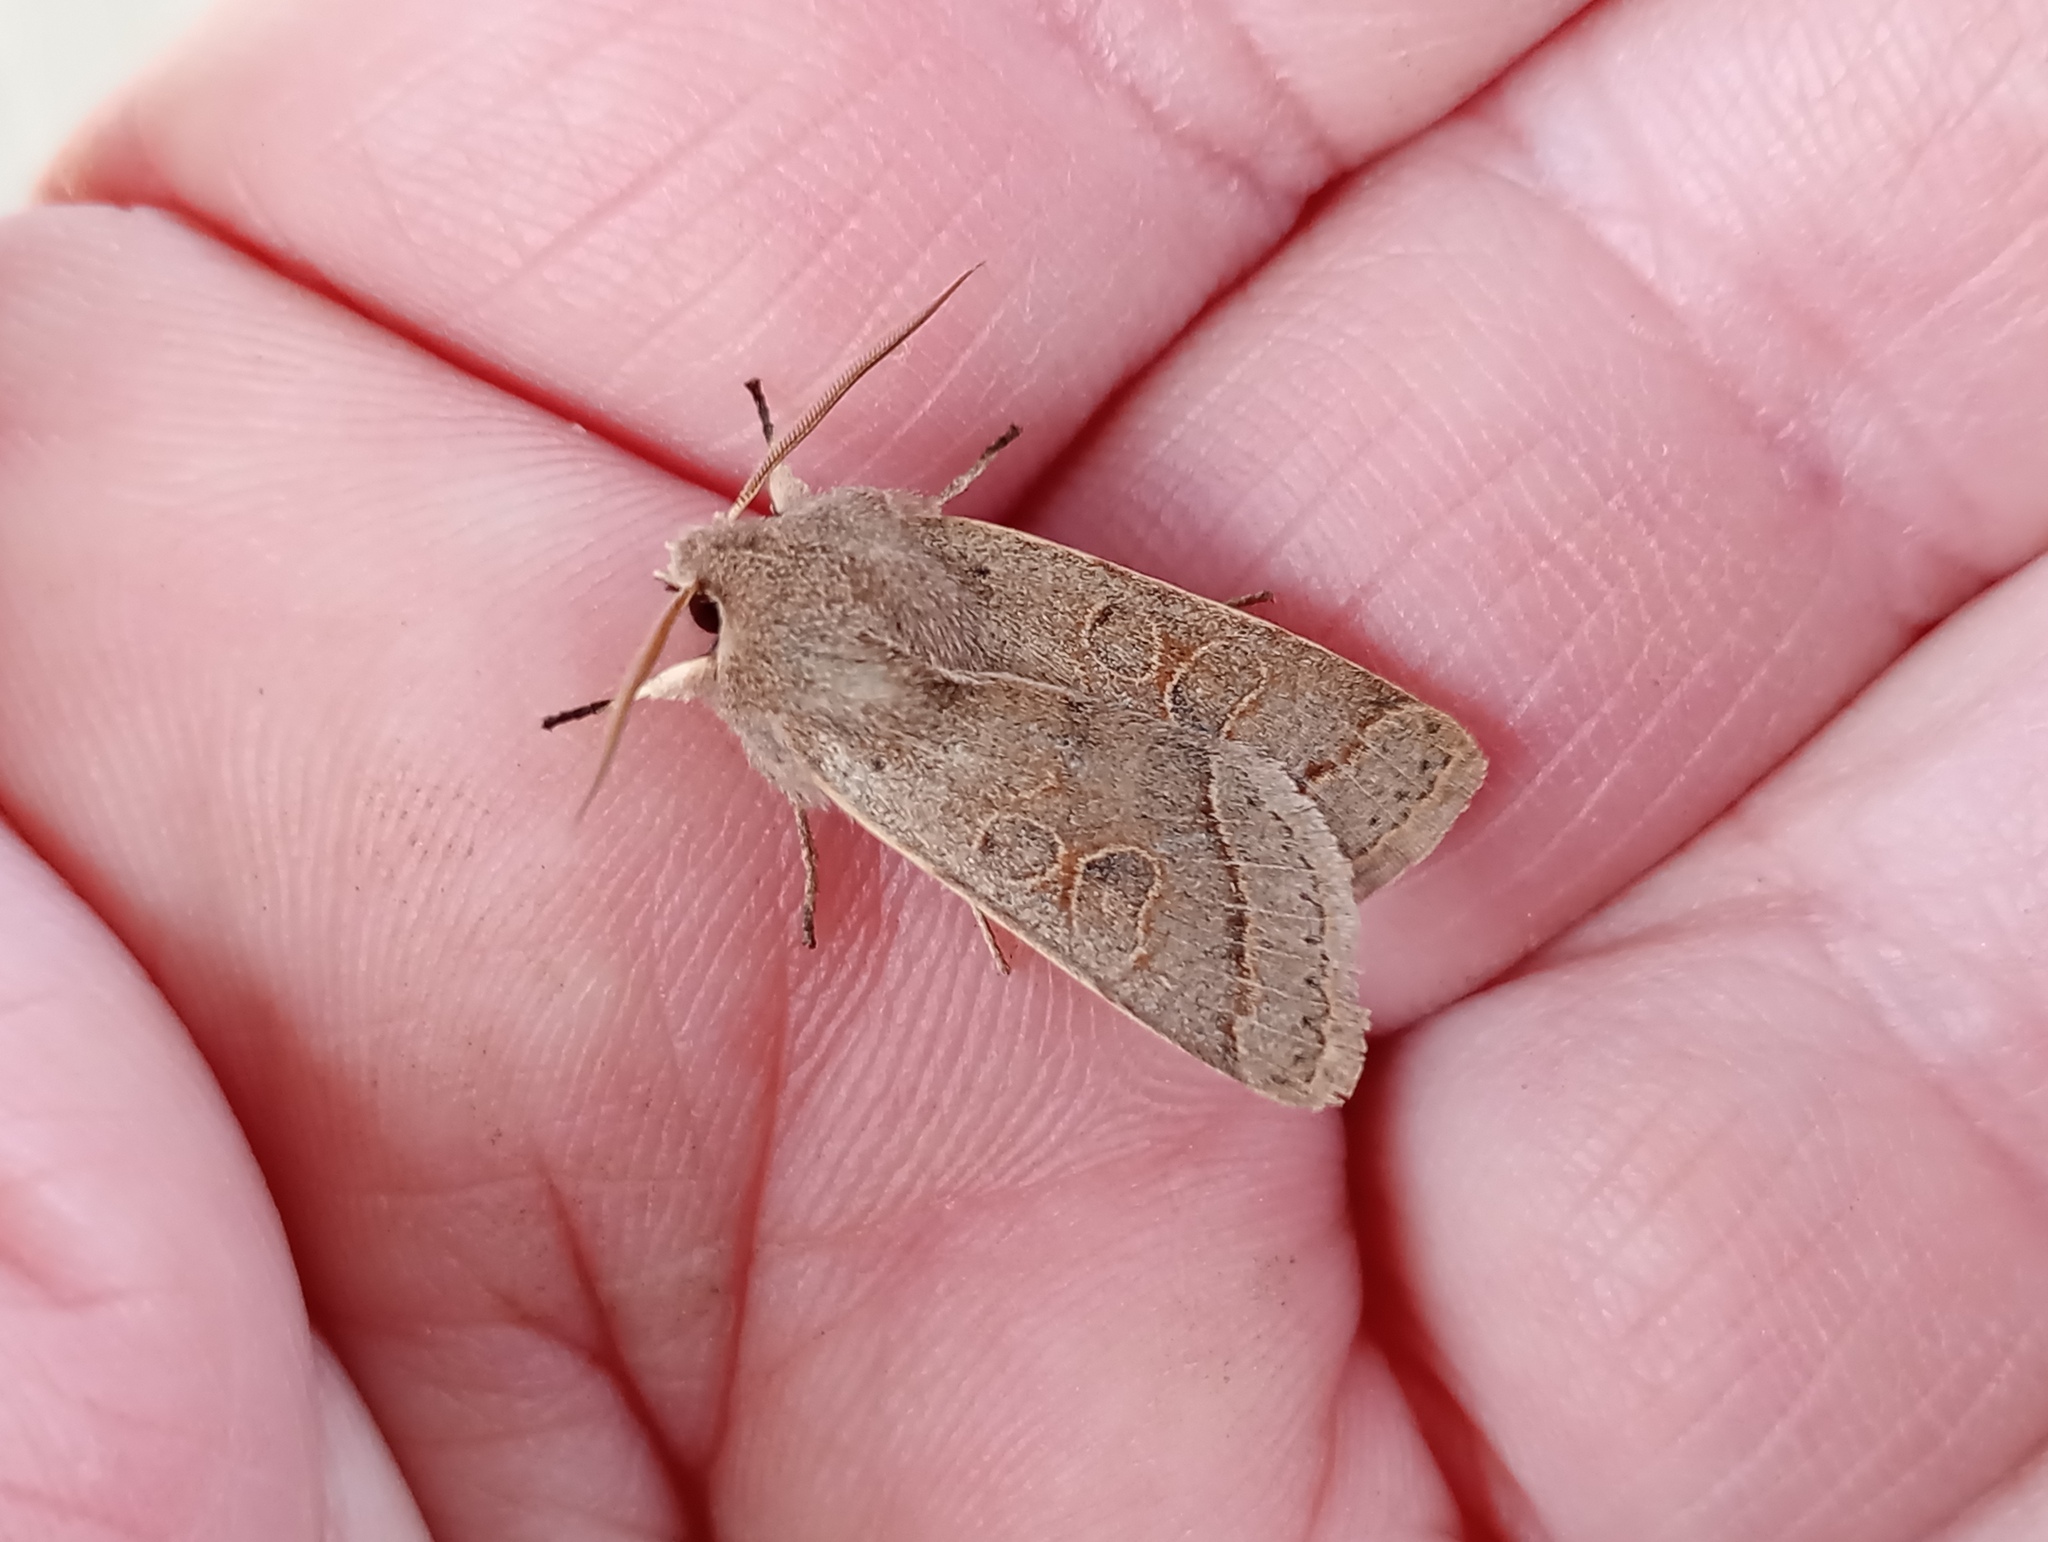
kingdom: Animalia
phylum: Arthropoda
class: Insecta
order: Lepidoptera
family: Noctuidae
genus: Orthosia
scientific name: Orthosia cerasi
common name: Common quaker
